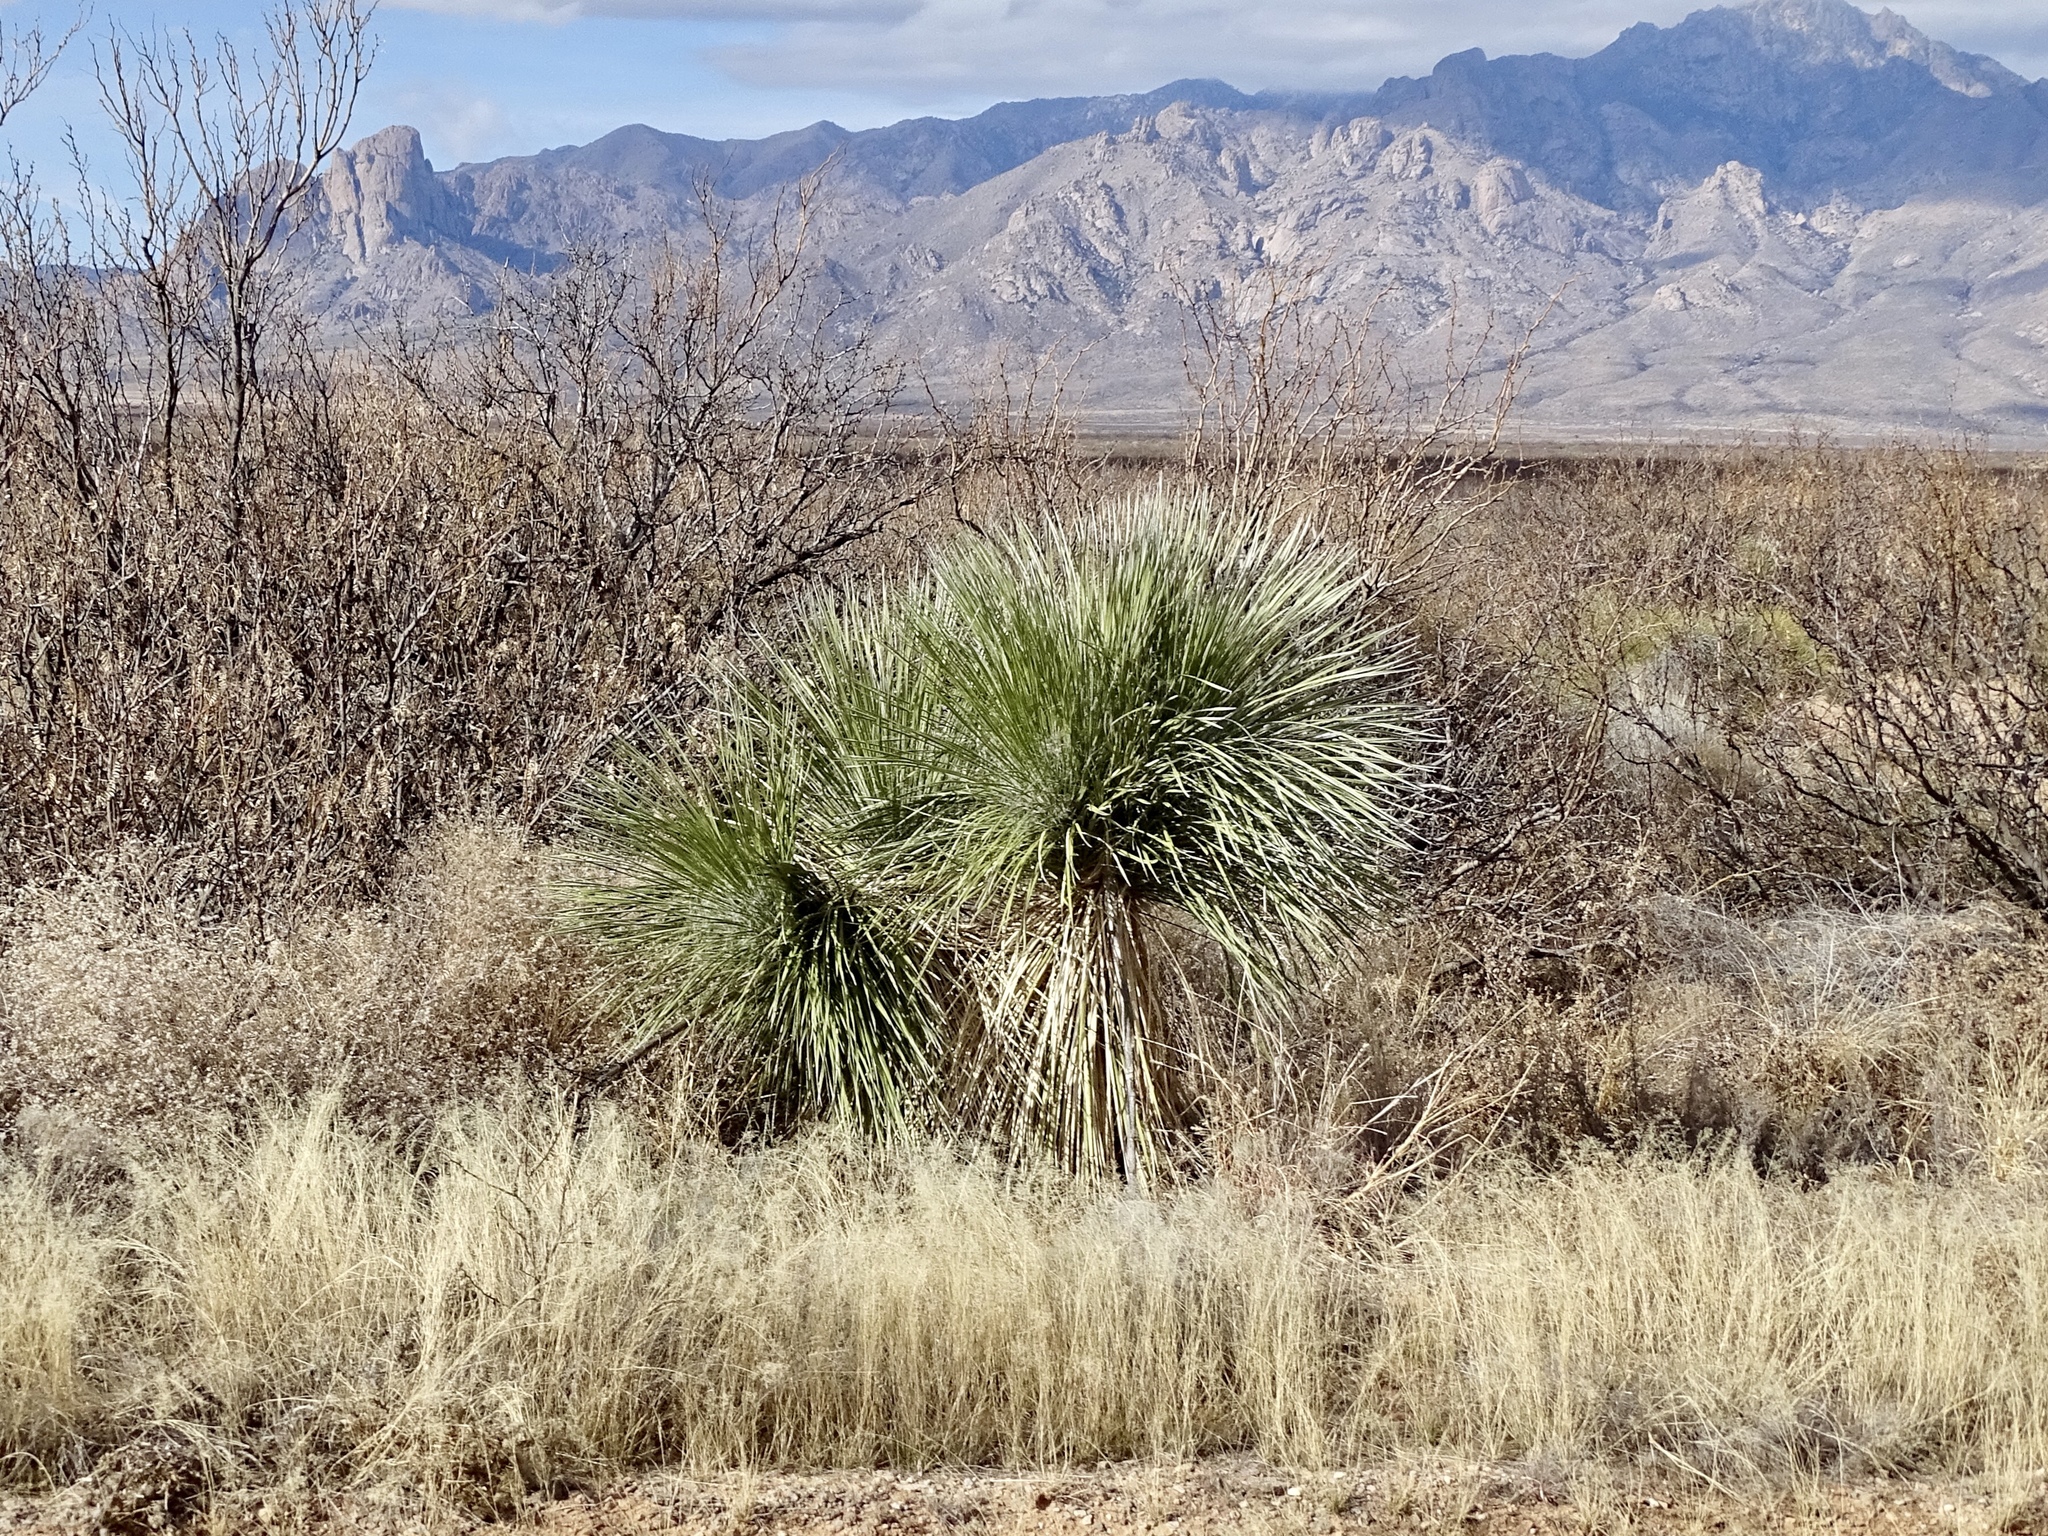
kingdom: Plantae
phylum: Tracheophyta
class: Liliopsida
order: Asparagales
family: Asparagaceae
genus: Yucca
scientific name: Yucca elata
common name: Palmella
